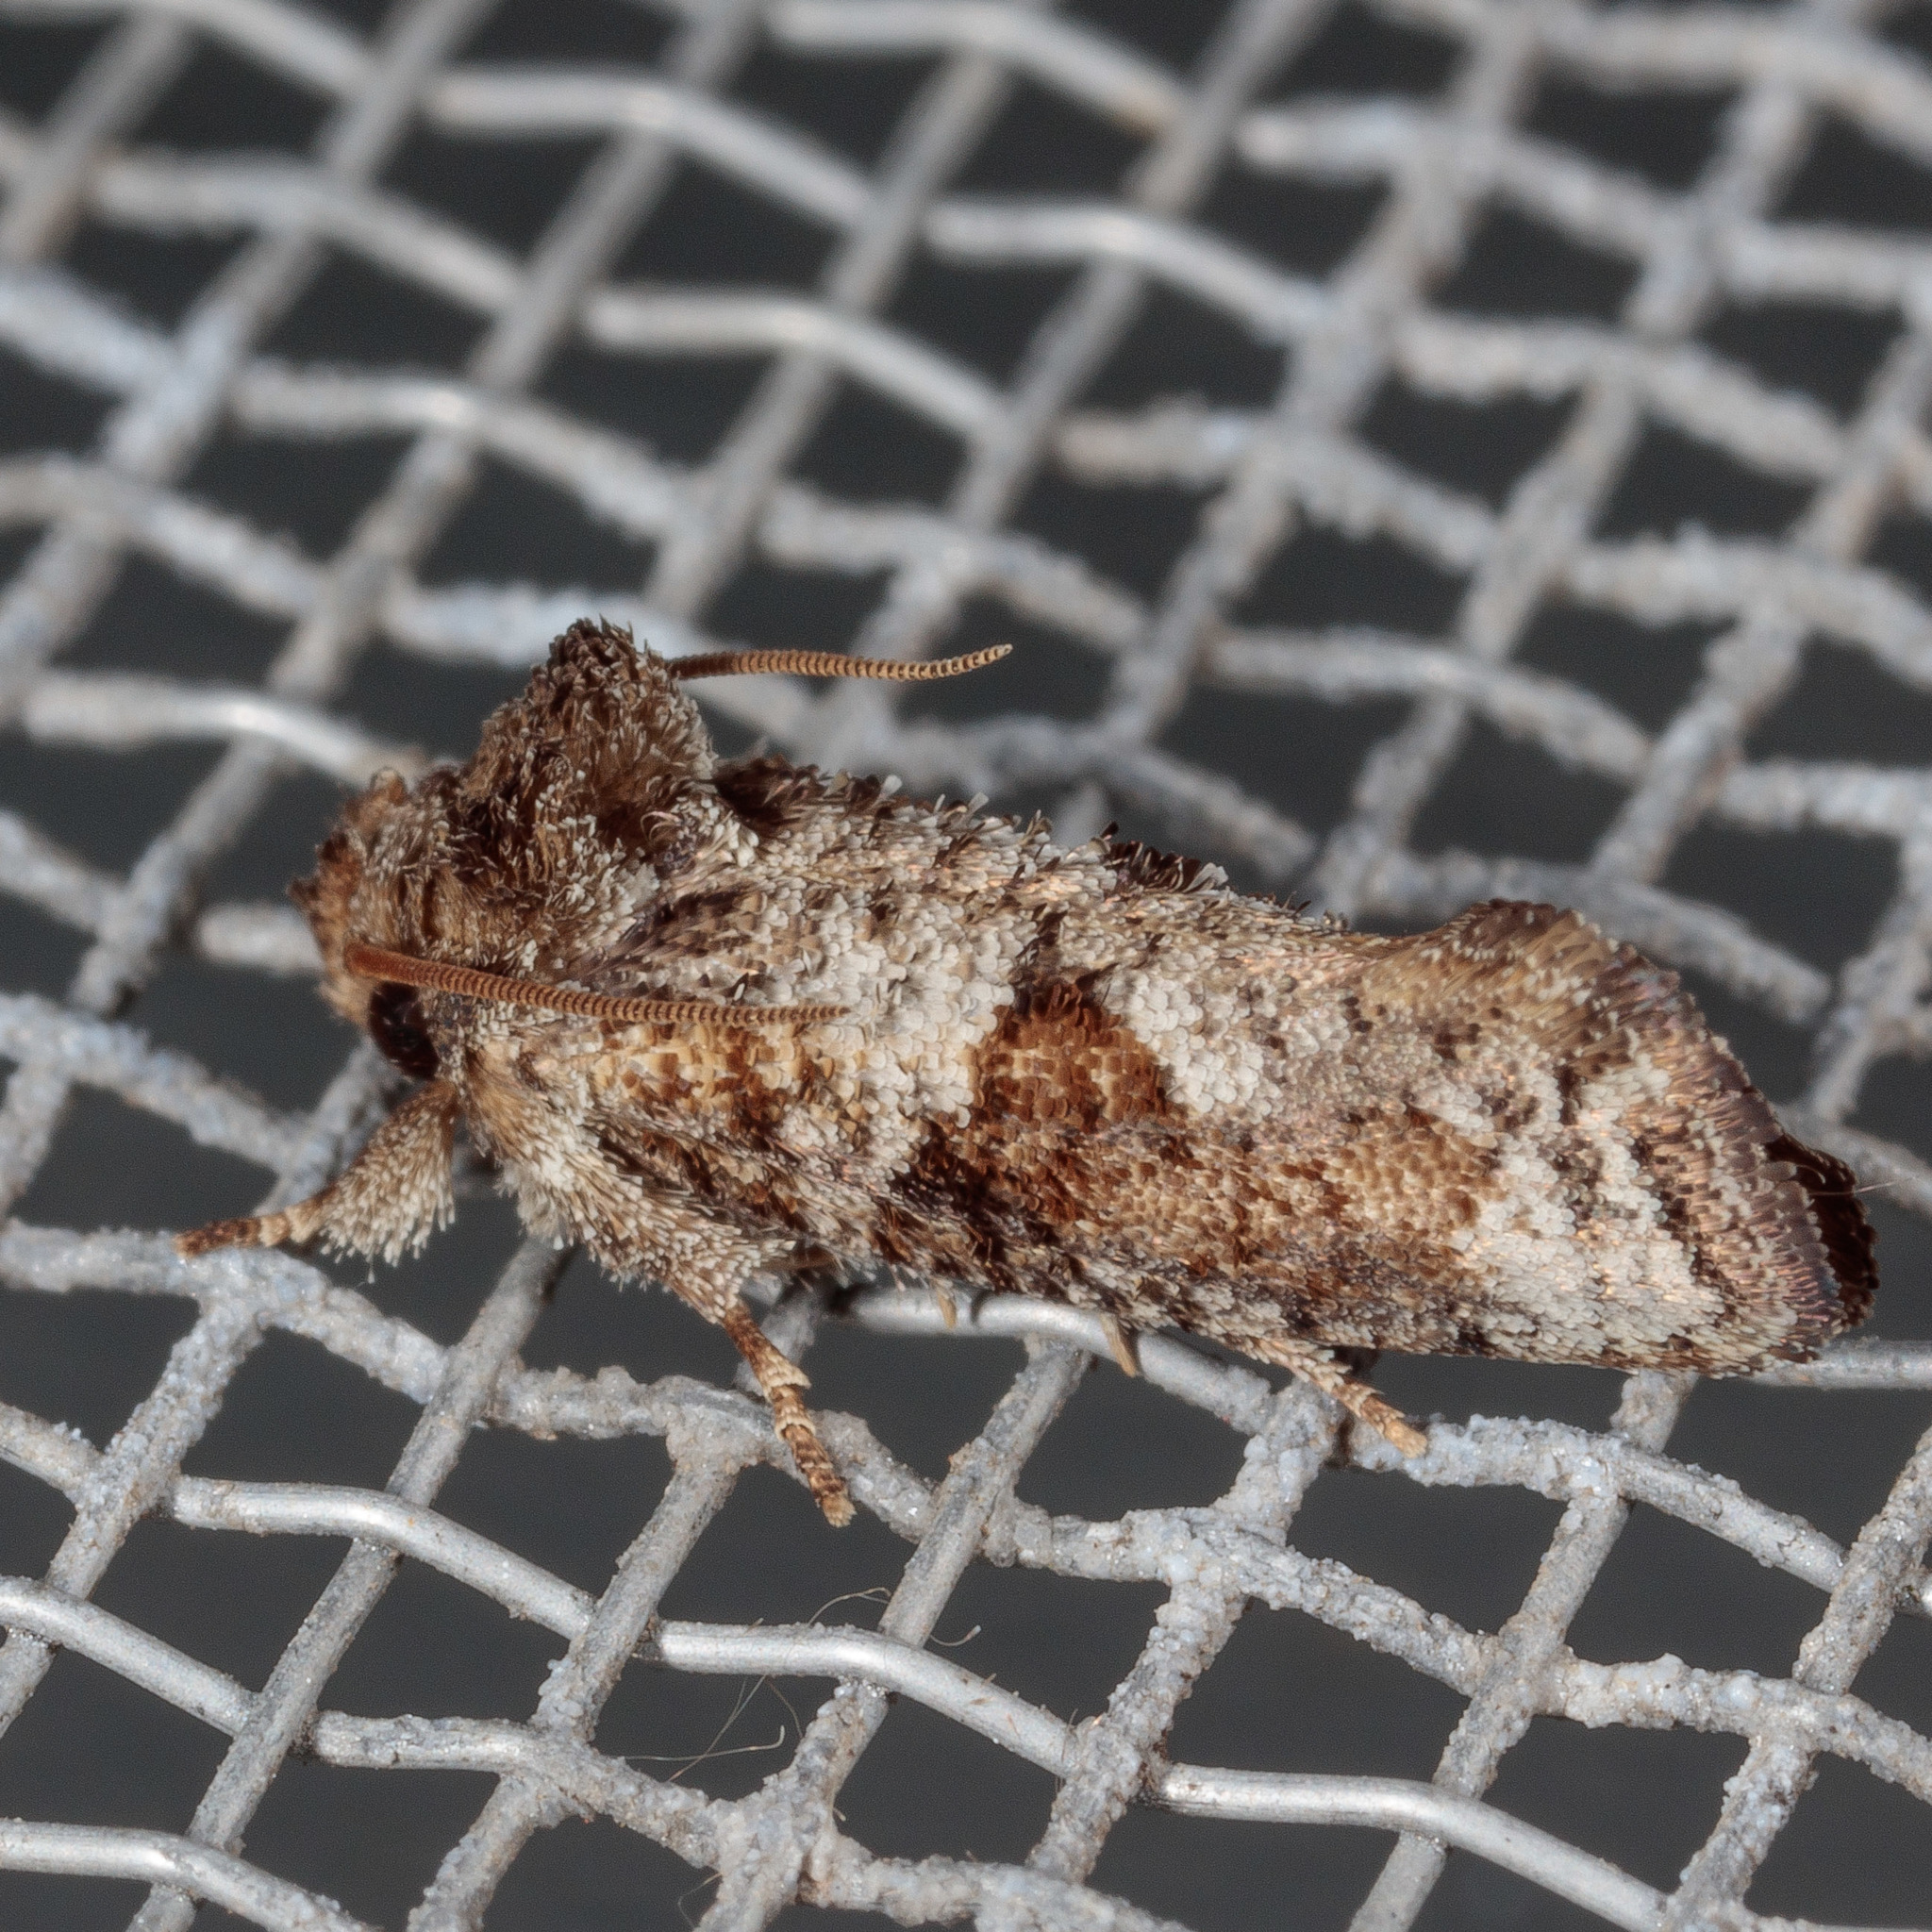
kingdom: Animalia
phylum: Arthropoda
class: Insecta
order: Lepidoptera
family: Tineidae
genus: Acrolophus
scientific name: Acrolophus piger
